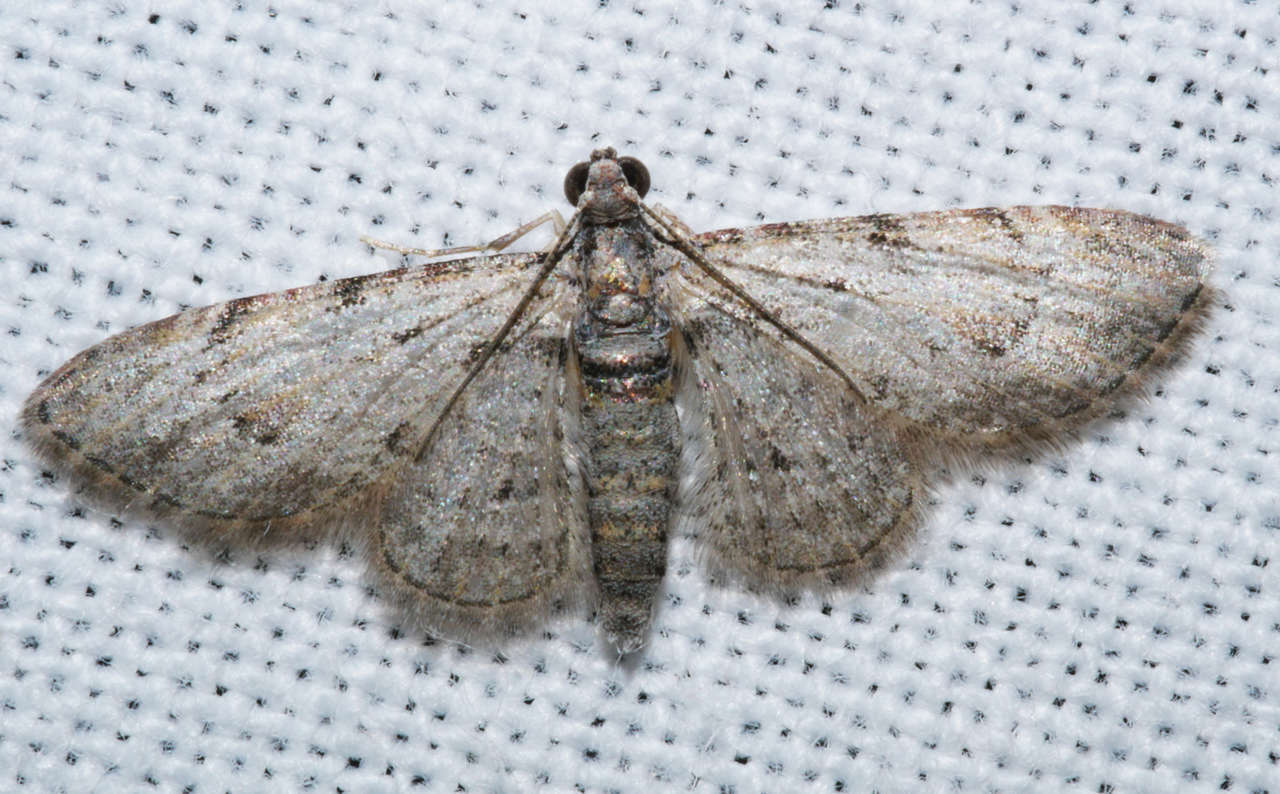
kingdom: Animalia
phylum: Arthropoda
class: Insecta
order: Lepidoptera
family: Geometridae
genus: Chloroclystis
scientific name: Chloroclystis insigillata
